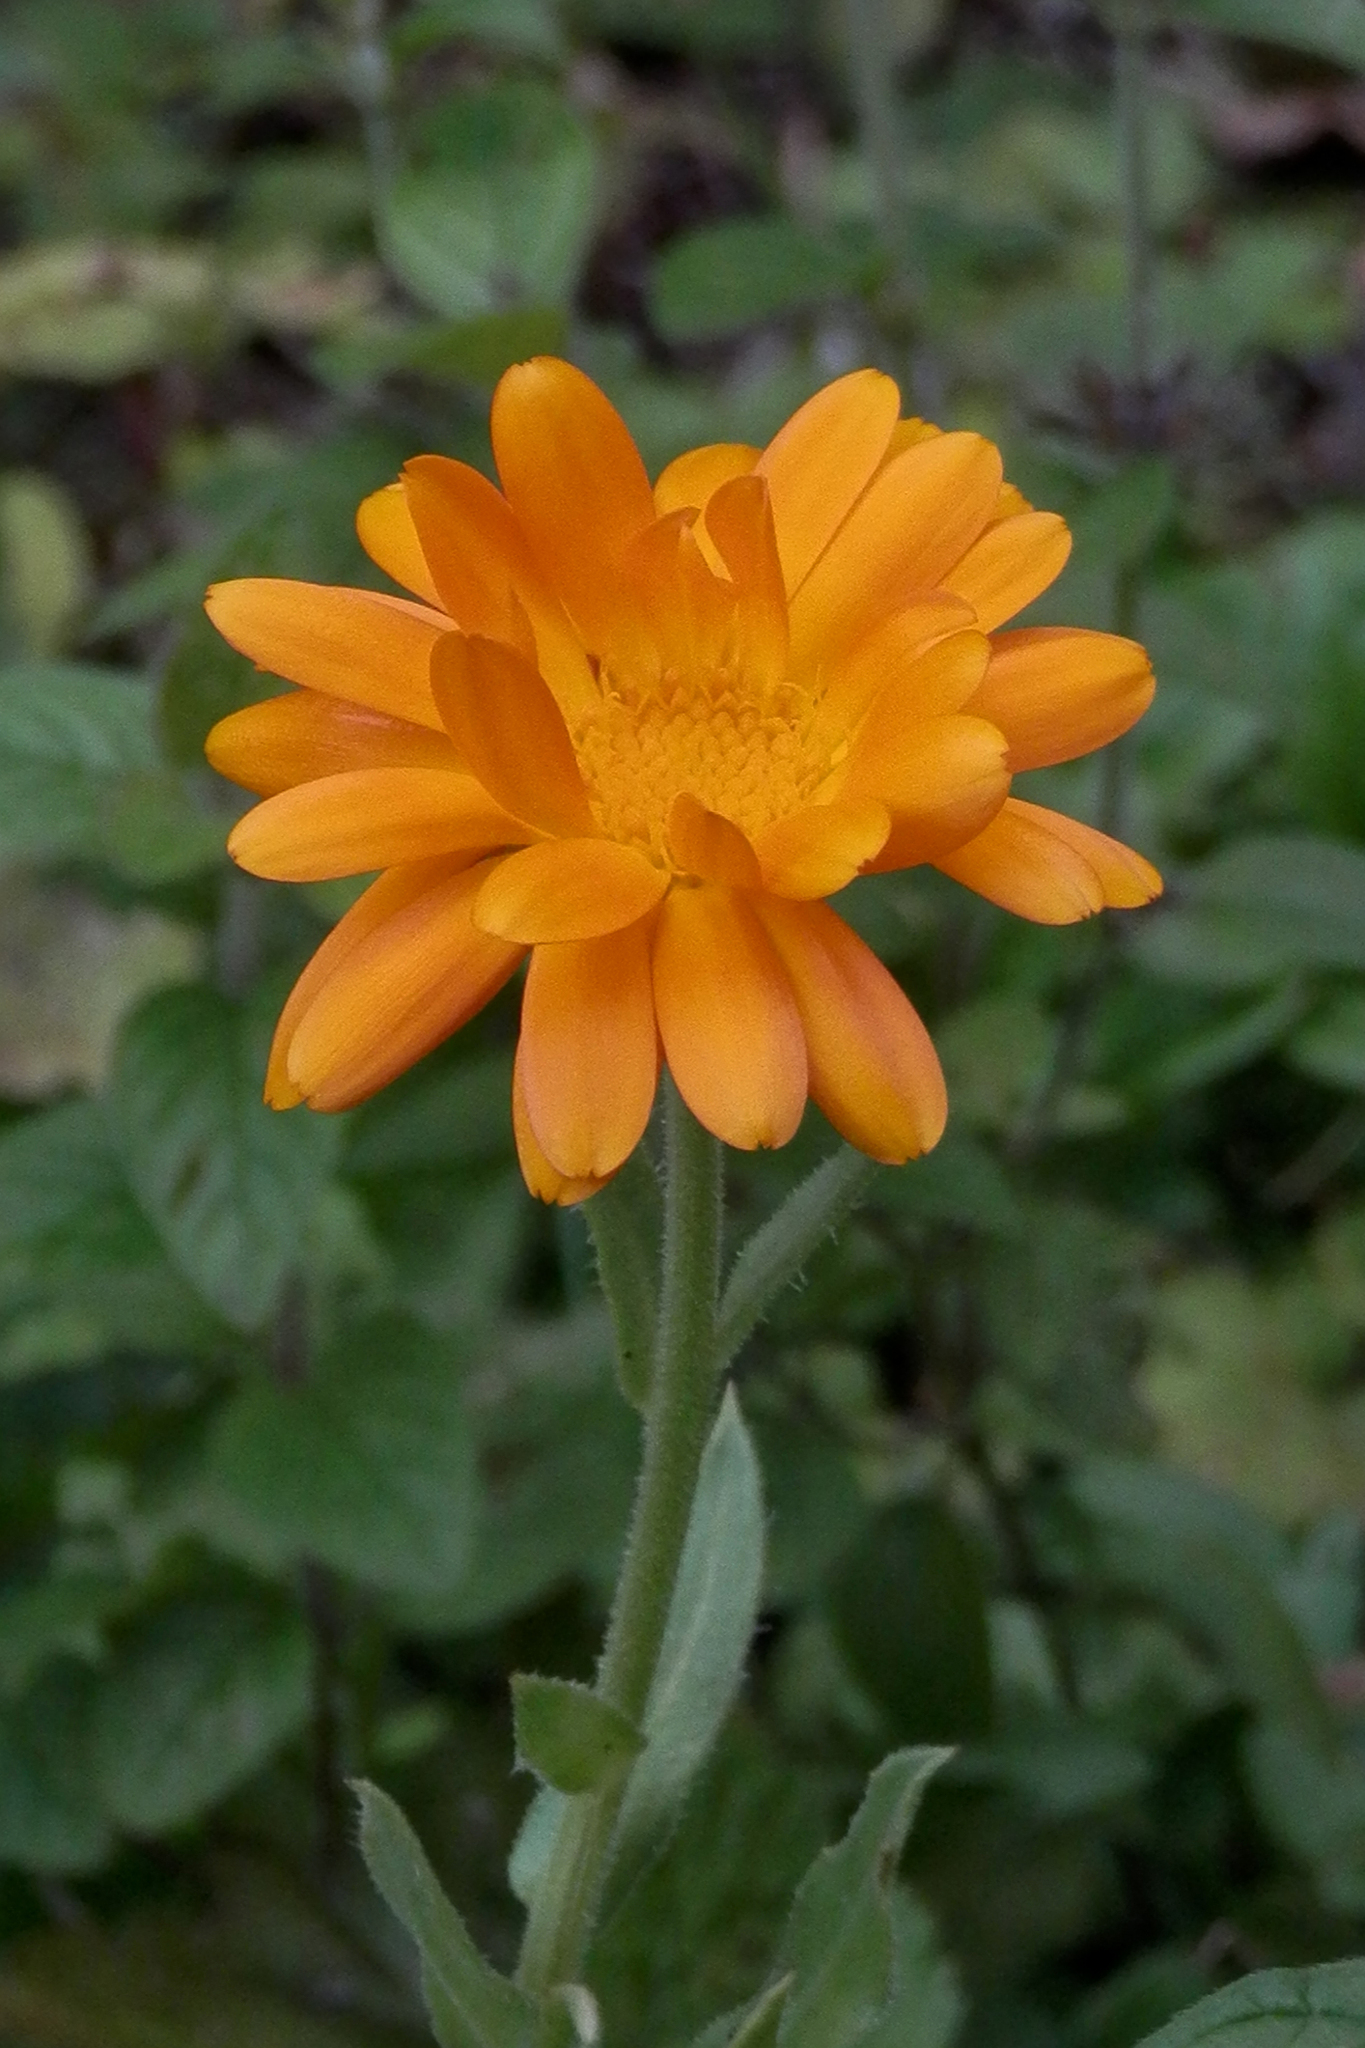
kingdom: Plantae
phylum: Tracheophyta
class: Magnoliopsida
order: Asterales
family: Asteraceae
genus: Calendula
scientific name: Calendula officinalis
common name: Pot marigold
